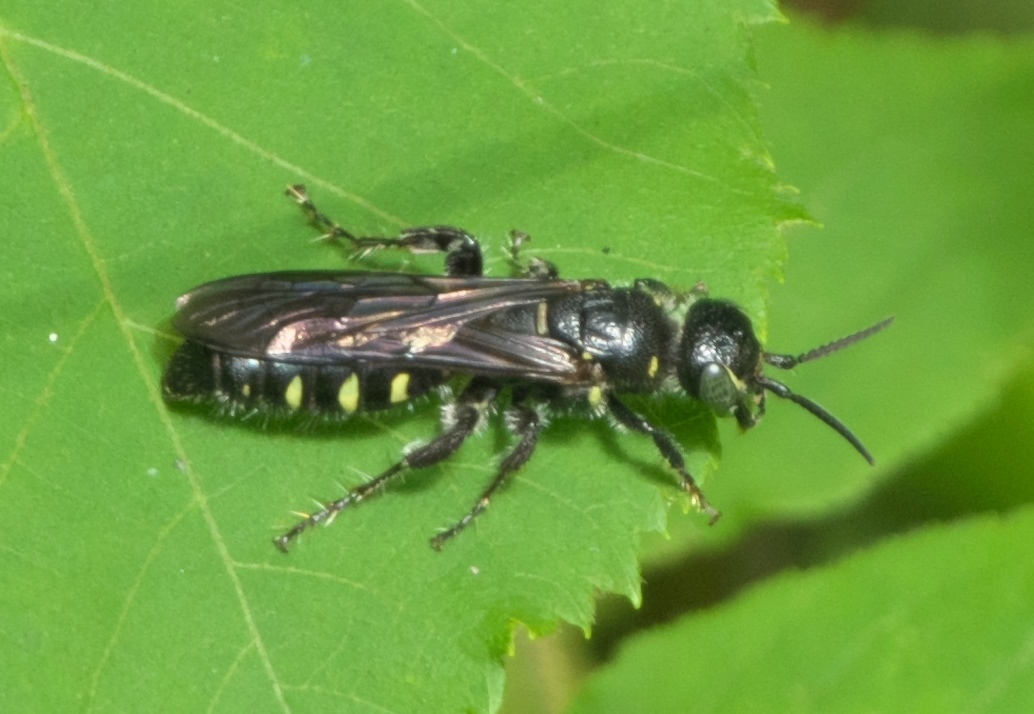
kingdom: Animalia
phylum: Arthropoda
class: Insecta
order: Hymenoptera
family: Tiphiidae
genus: Myzinum
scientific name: Myzinum obscurum
